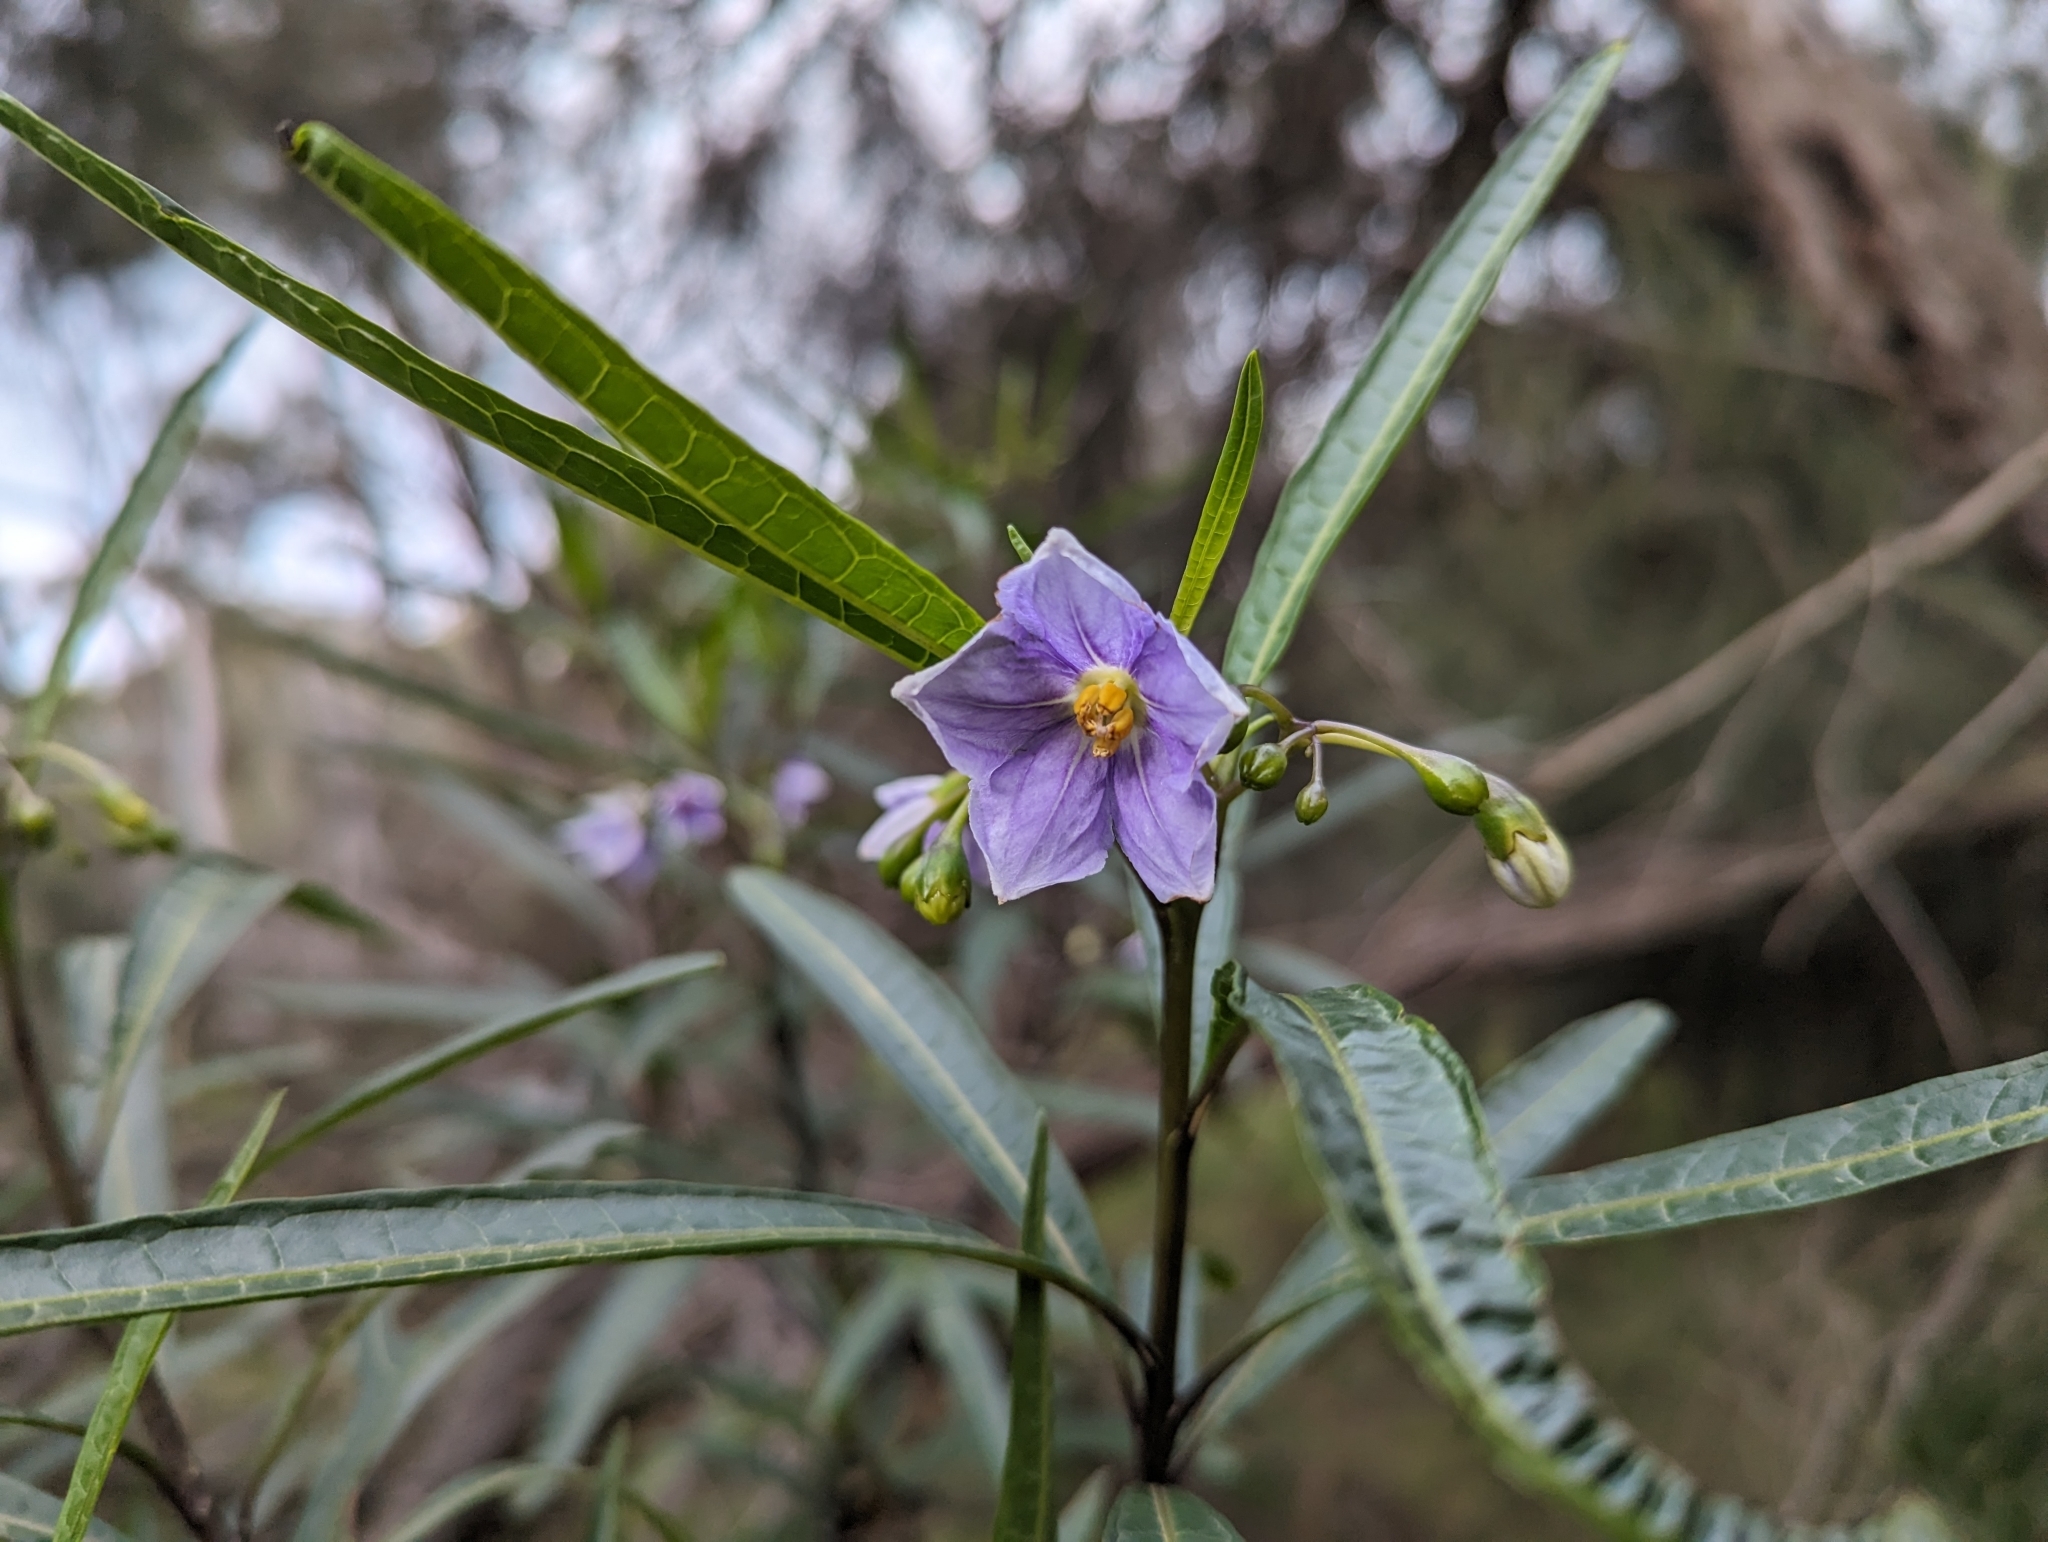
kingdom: Plantae
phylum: Tracheophyta
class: Magnoliopsida
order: Solanales
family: Solanaceae
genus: Solanum
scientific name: Solanum aviculare
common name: New zealand nightshade
